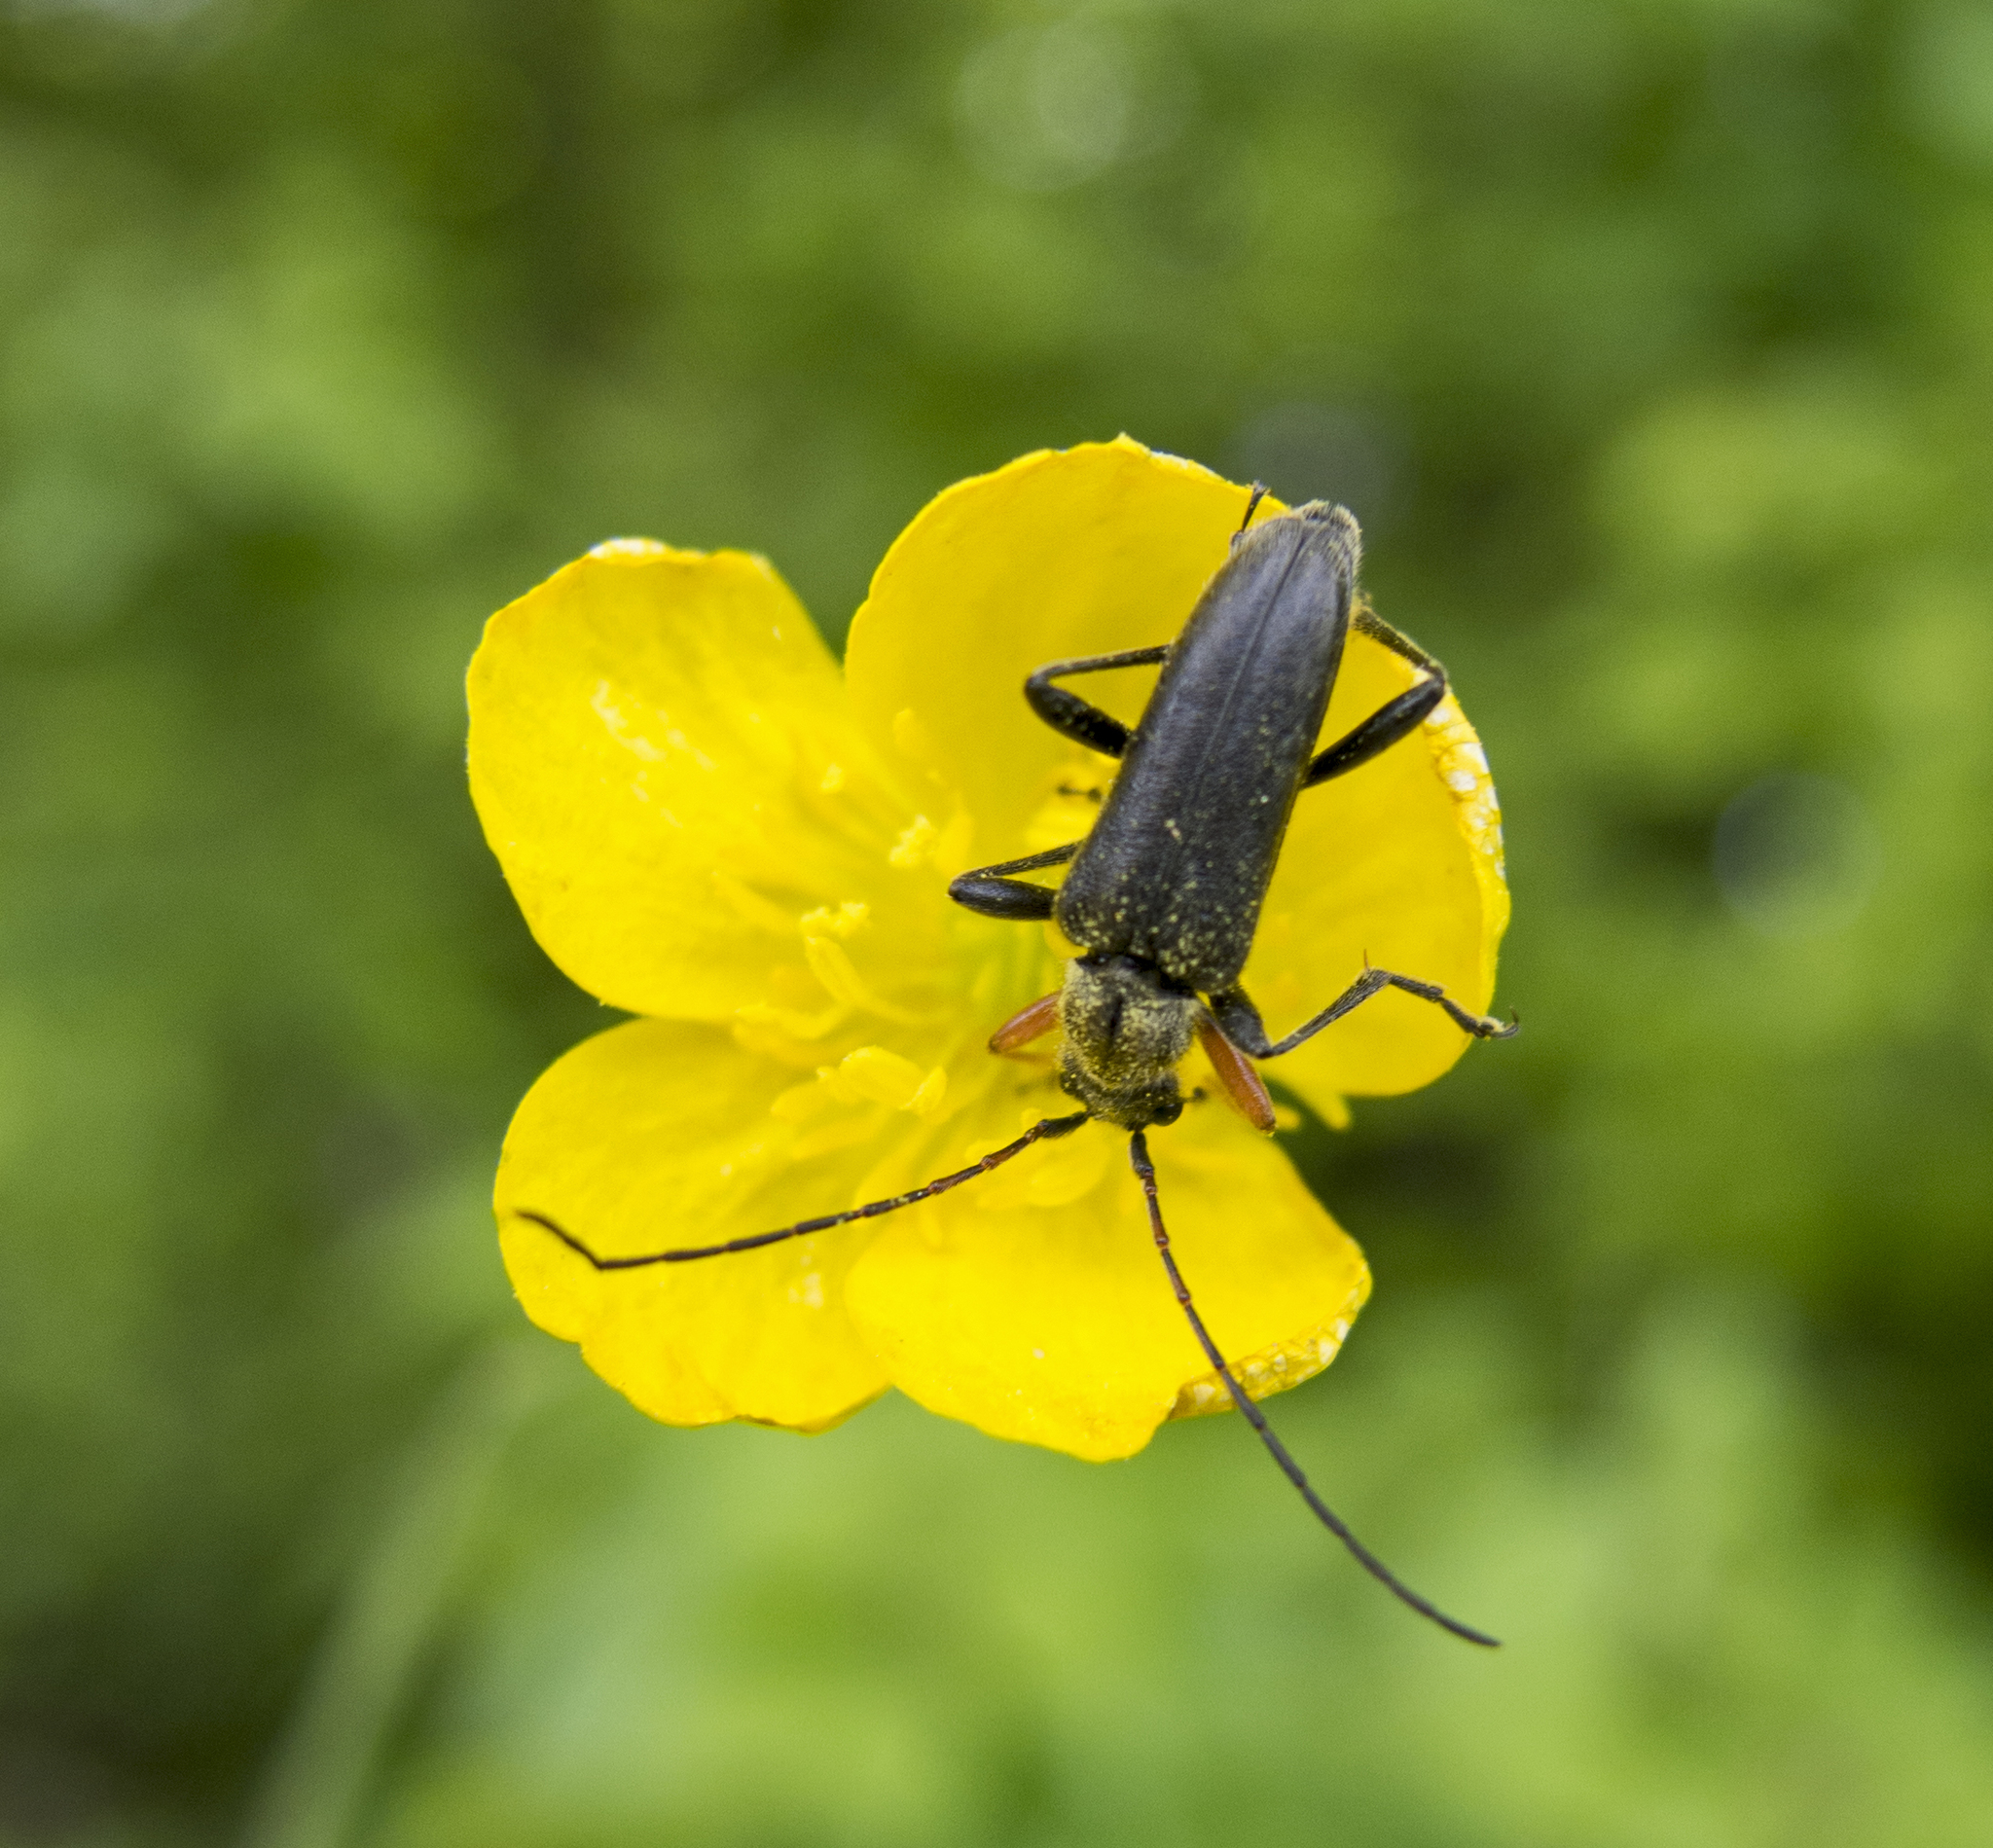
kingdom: Animalia
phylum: Arthropoda
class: Insecta
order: Coleoptera
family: Cerambycidae
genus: Cortodera
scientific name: Cortodera flavimana
